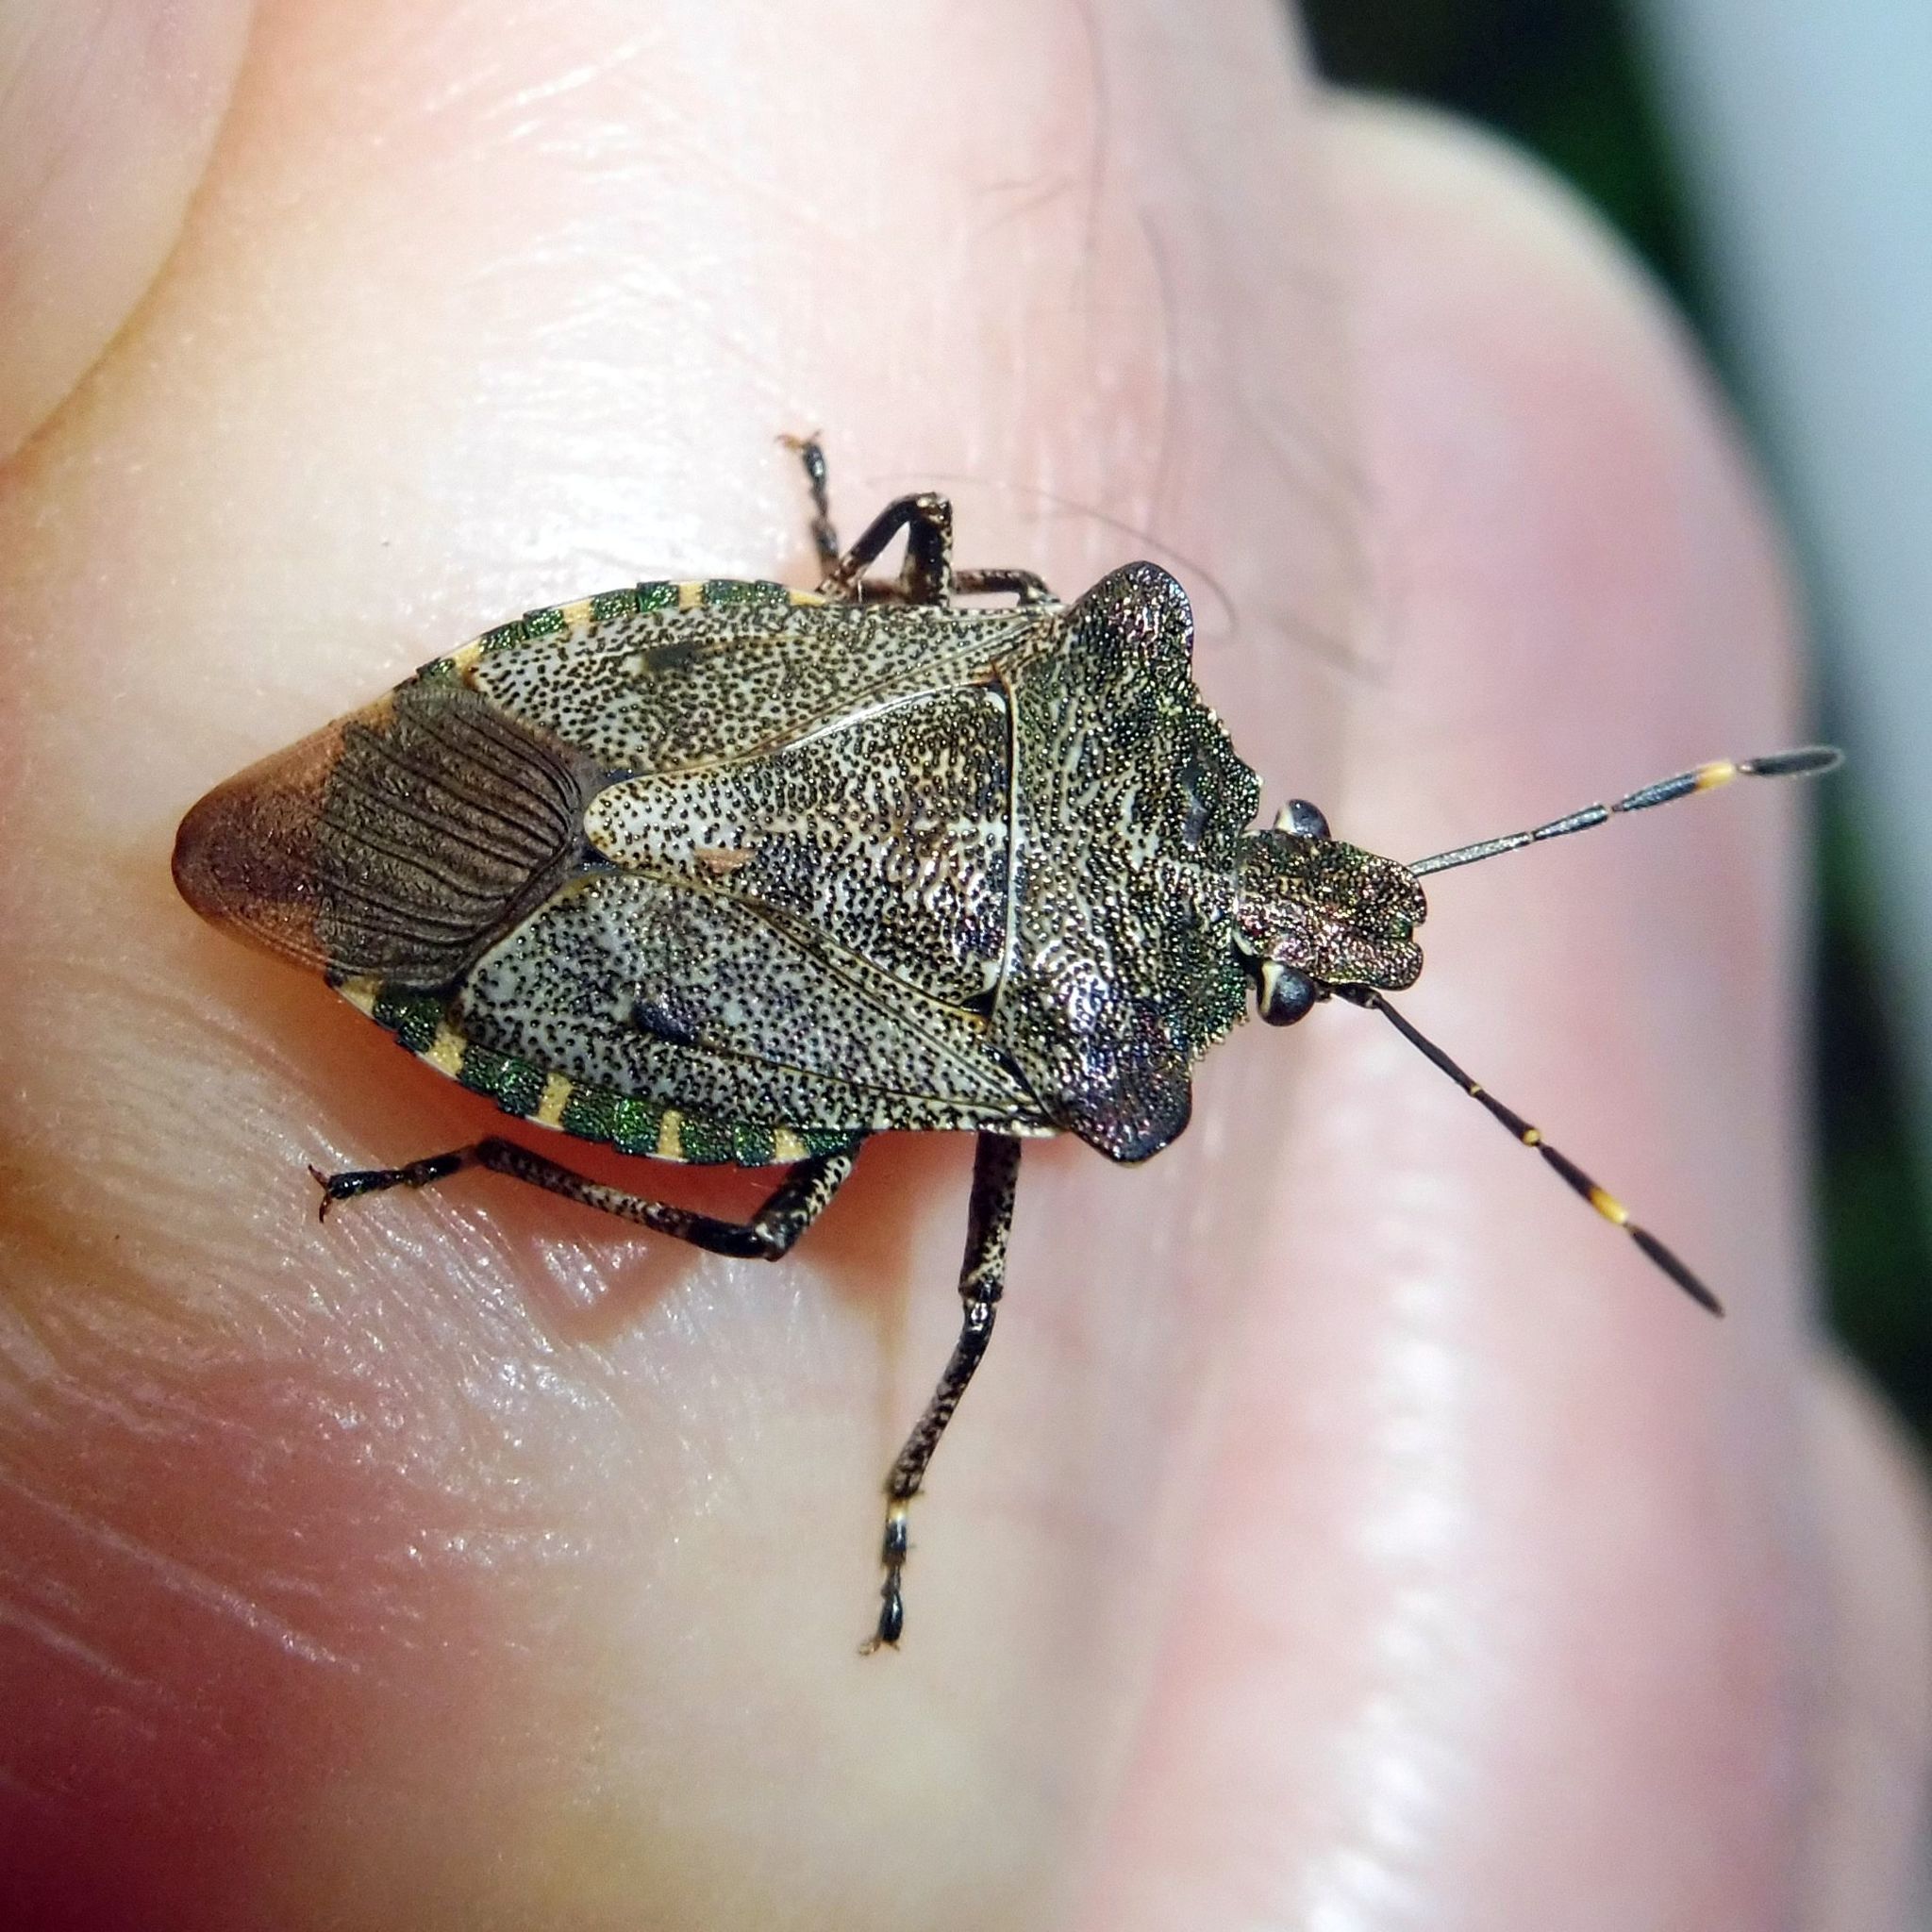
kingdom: Animalia
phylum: Arthropoda
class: Insecta
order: Hemiptera
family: Pentatomidae
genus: Troilus
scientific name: Troilus luridus
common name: Bronze shieldbug
